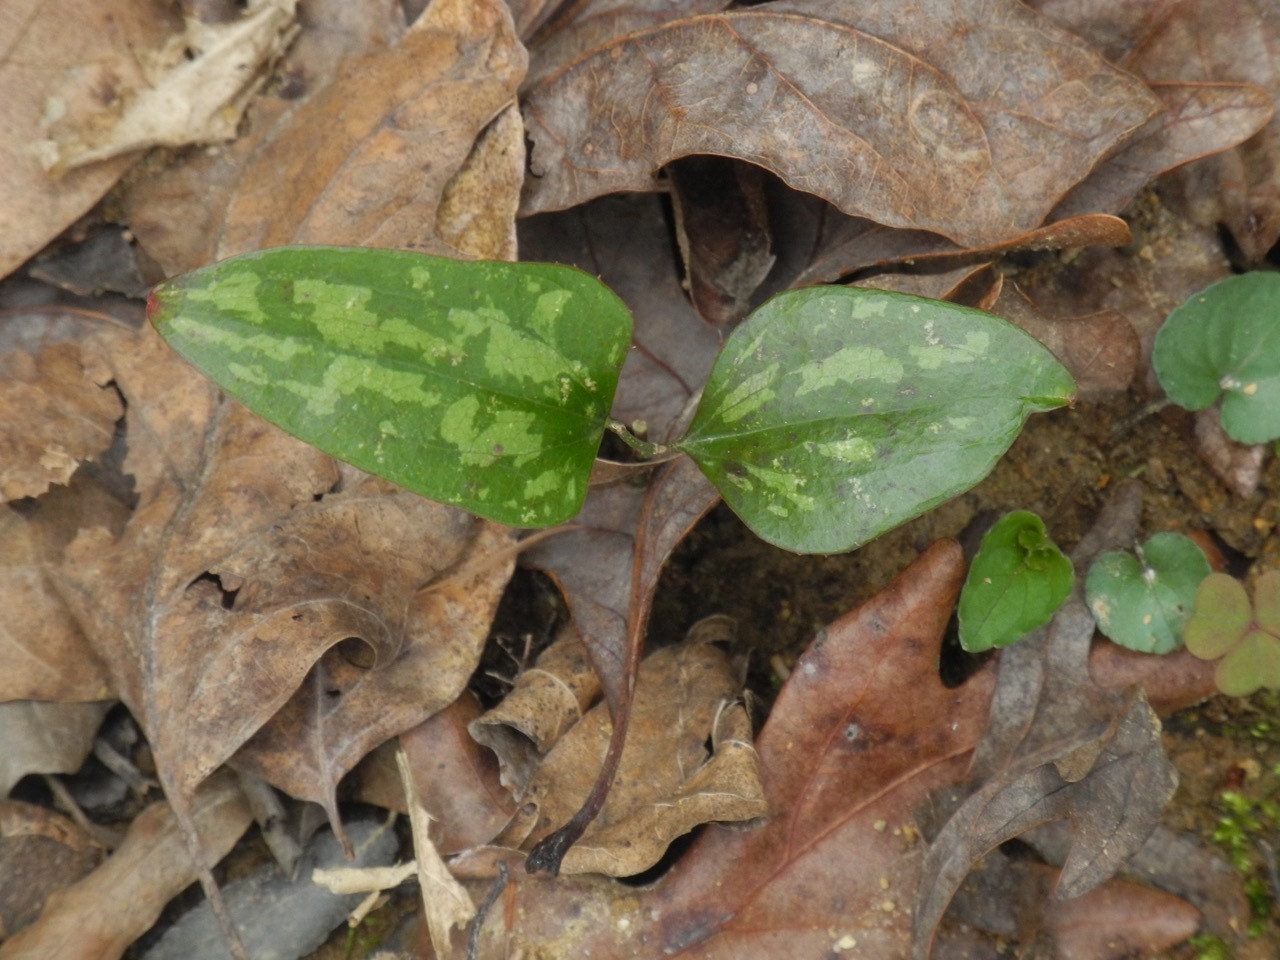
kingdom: Plantae
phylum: Tracheophyta
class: Liliopsida
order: Liliales
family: Smilacaceae
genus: Smilax
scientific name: Smilax bona-nox
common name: Catbrier
